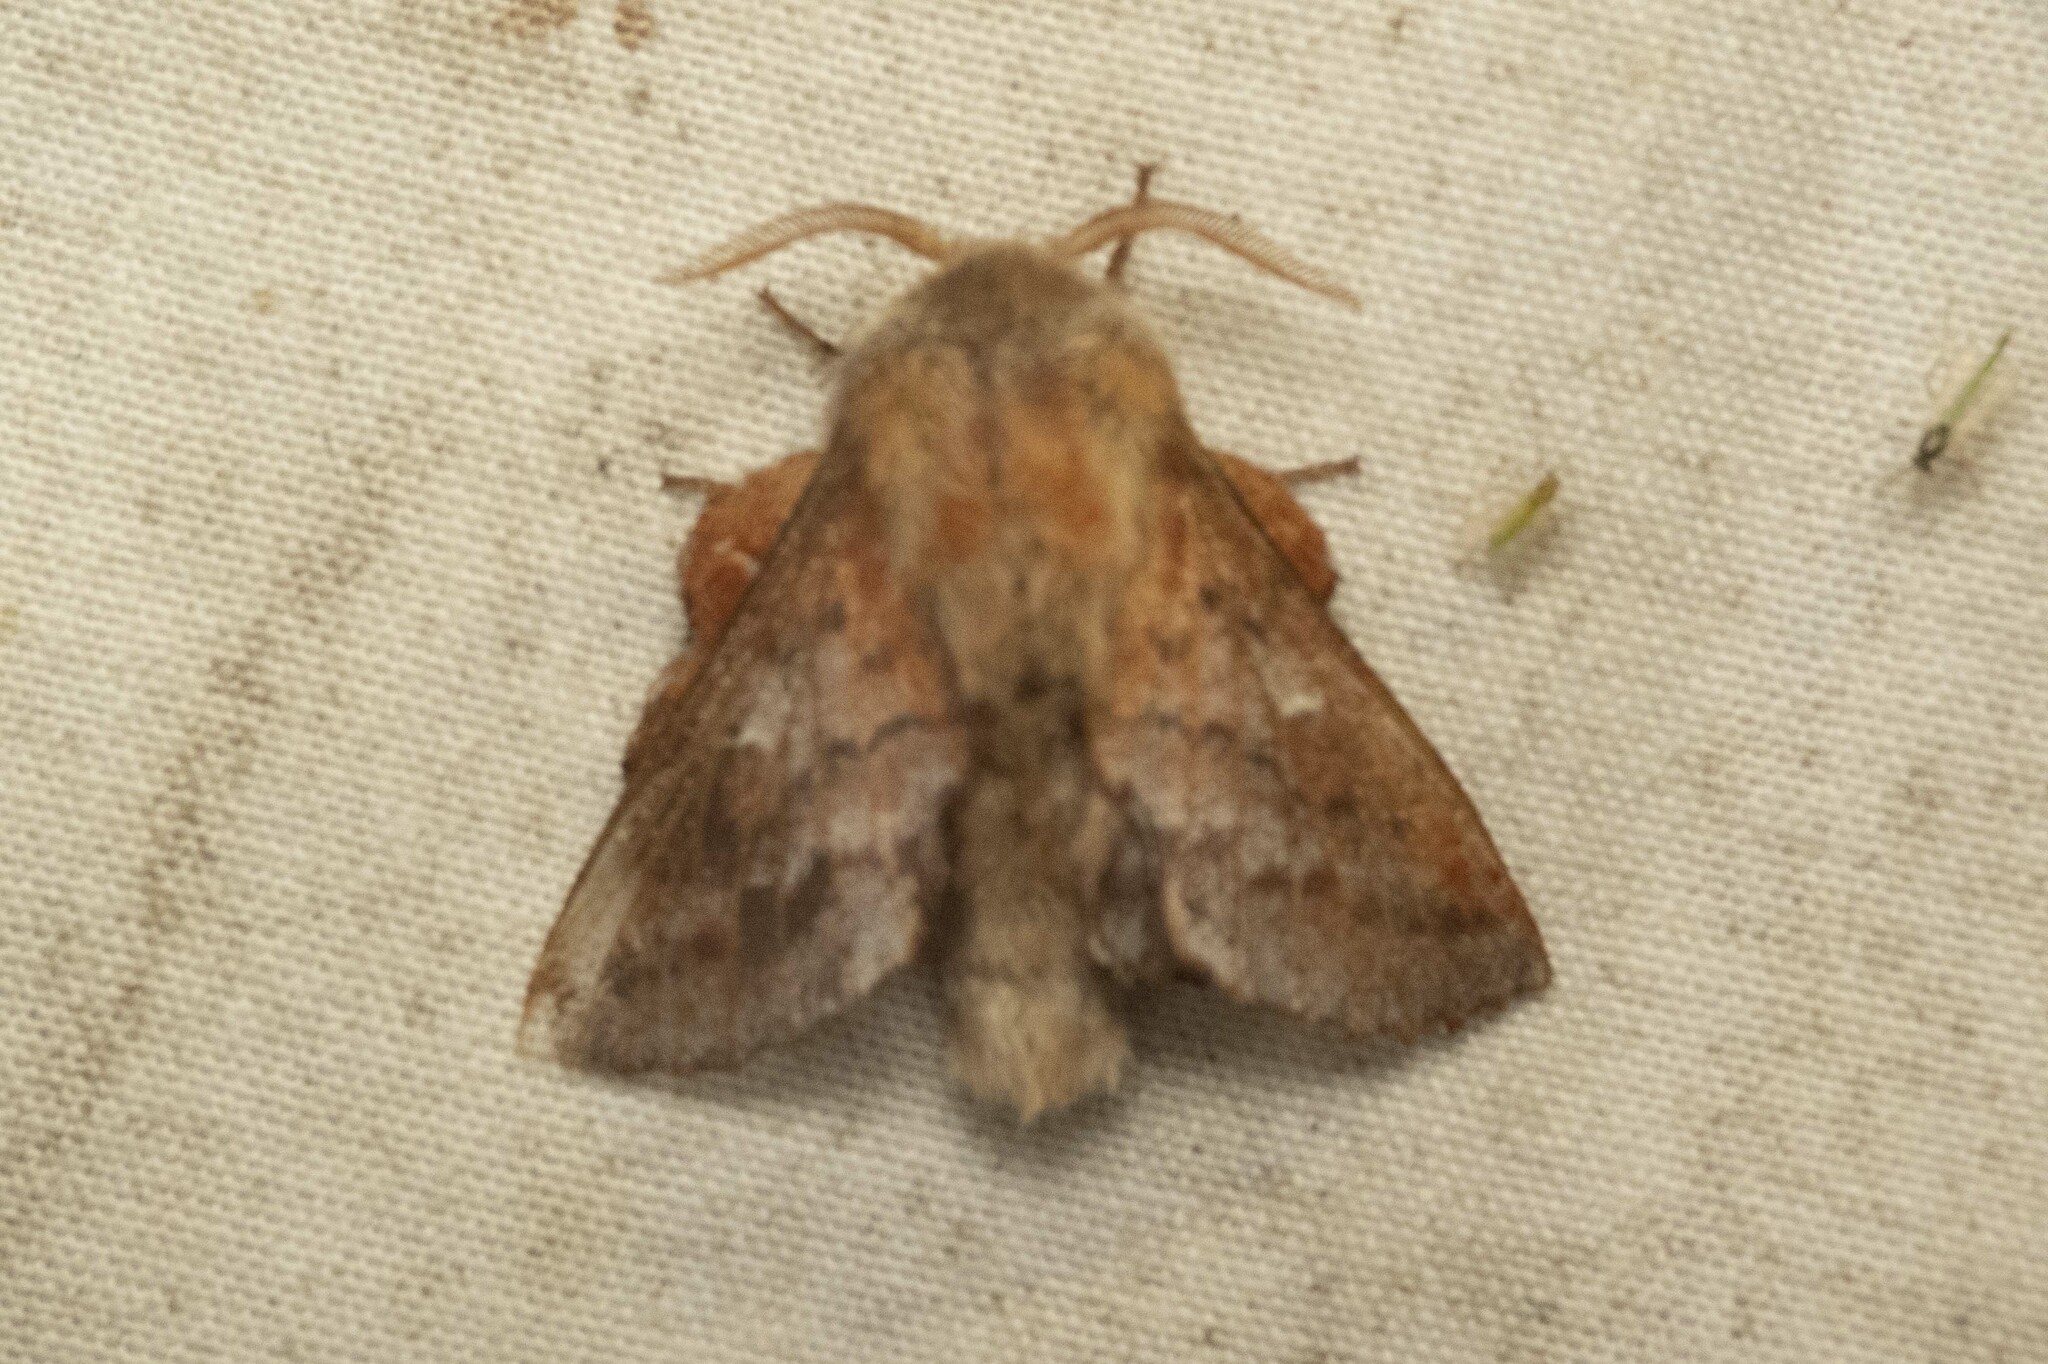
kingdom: Animalia
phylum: Arthropoda
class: Insecta
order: Lepidoptera
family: Lasiocampidae
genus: Phyllodesma
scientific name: Phyllodesma americana
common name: American lappet moth
